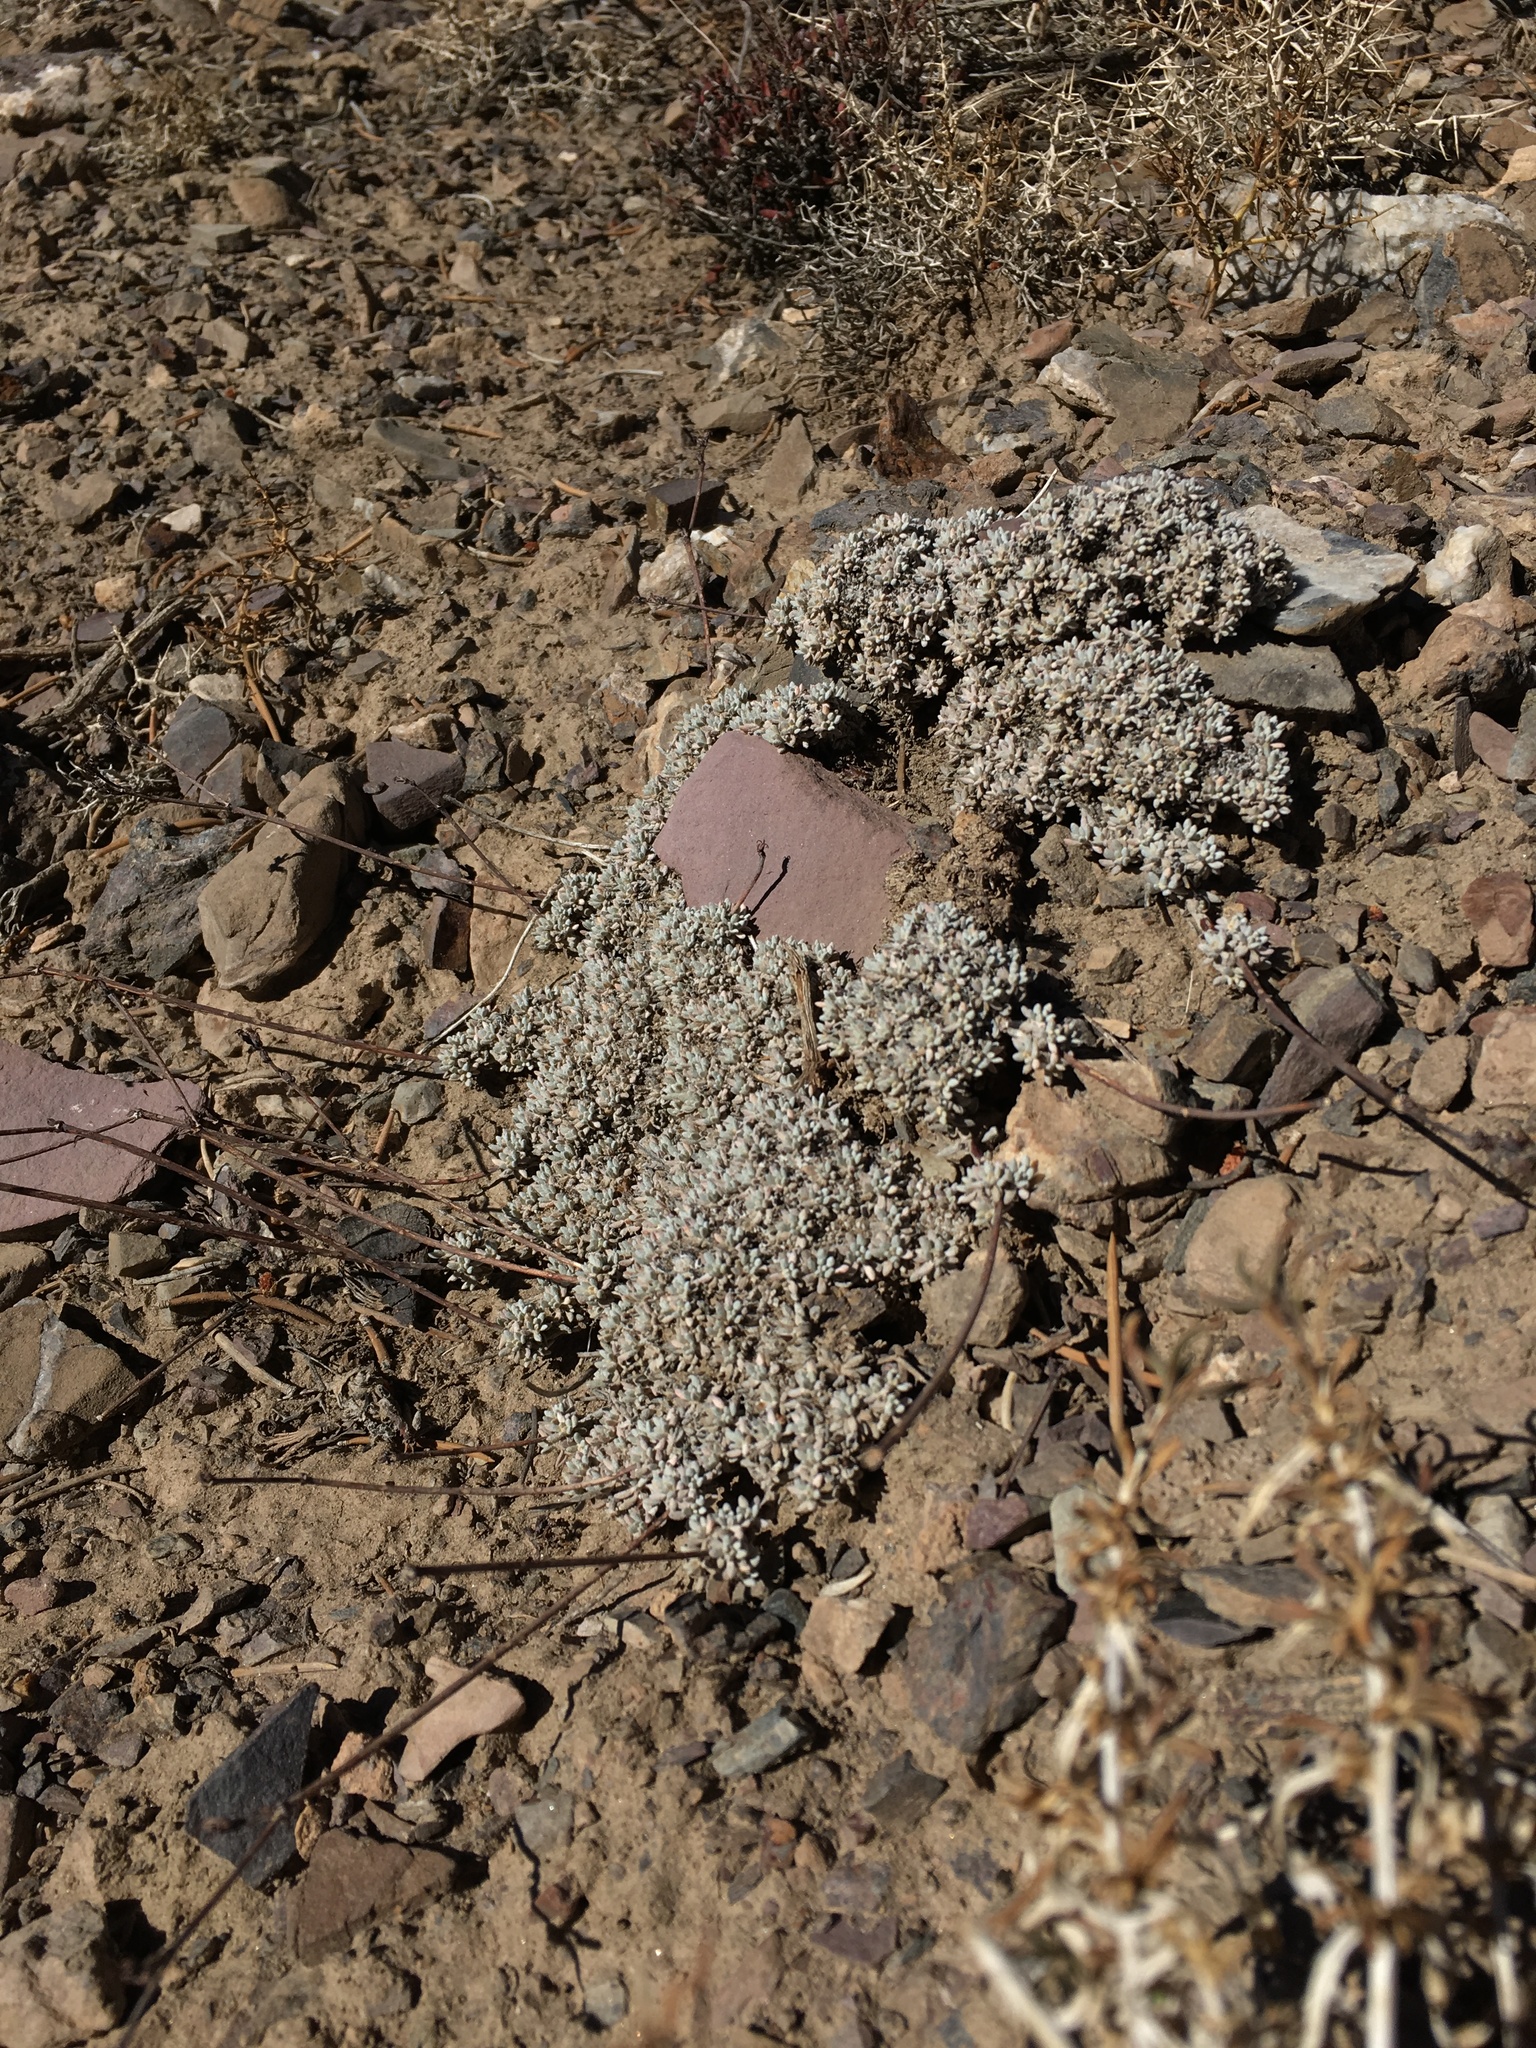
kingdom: Plantae
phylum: Tracheophyta
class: Magnoliopsida
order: Caryophyllales
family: Polygonaceae
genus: Eriogonum
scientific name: Eriogonum wrightii
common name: Bastard-sage
